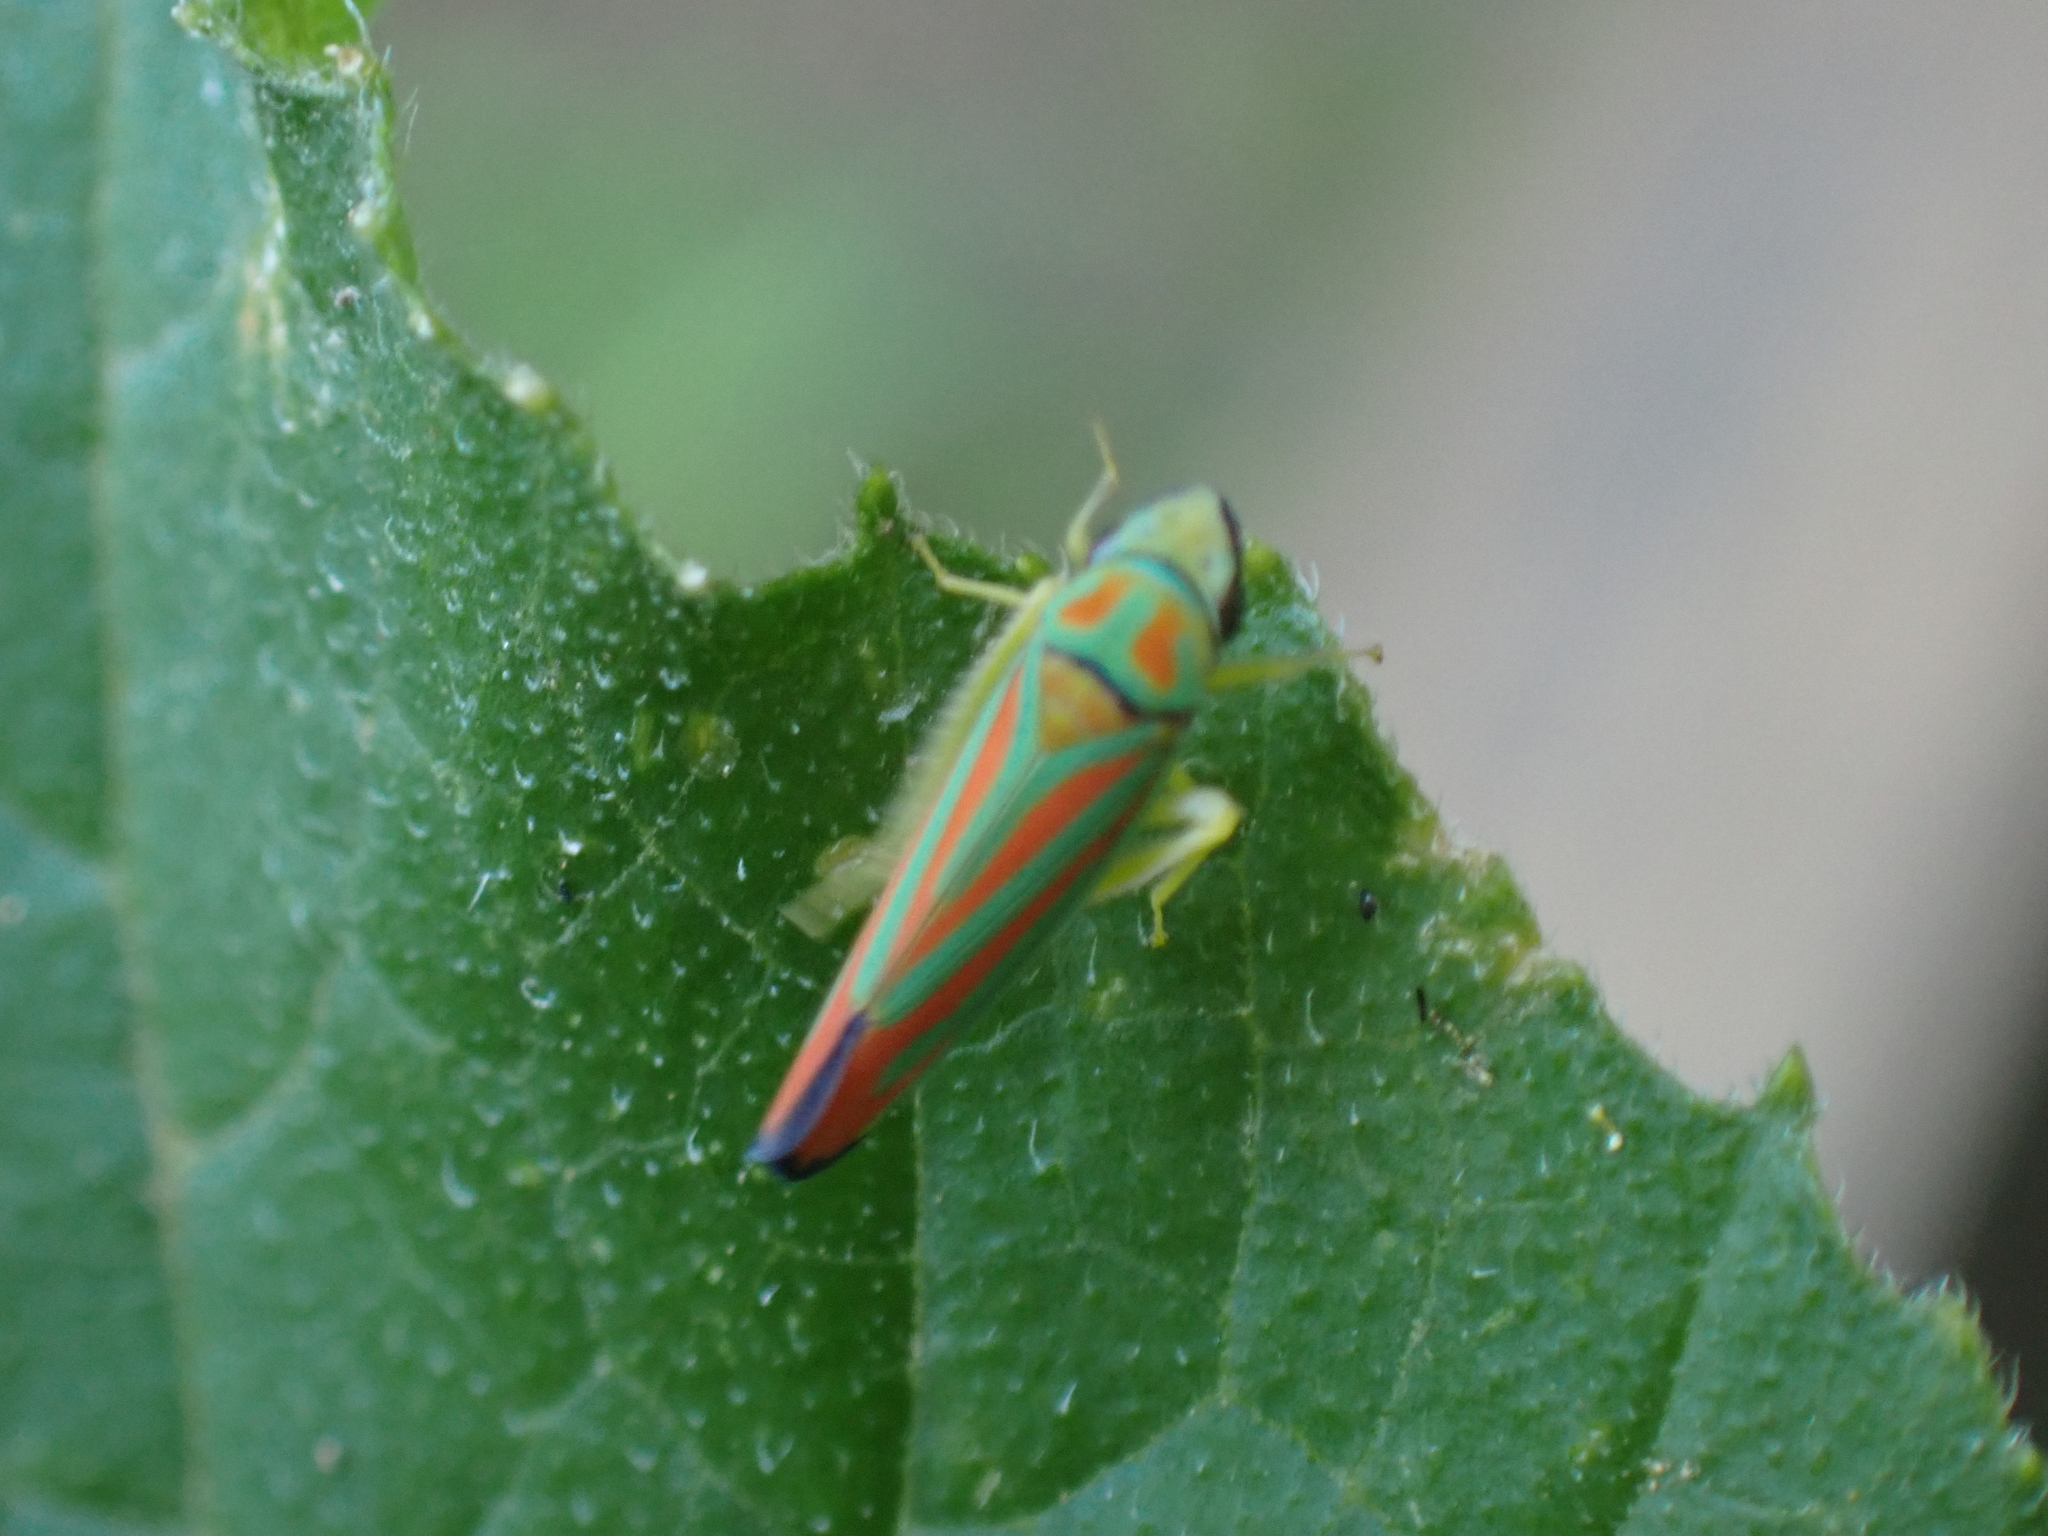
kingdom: Animalia
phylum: Arthropoda
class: Insecta
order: Hemiptera
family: Cicadellidae
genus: Graphocephala
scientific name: Graphocephala coccinea
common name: Candy-striped leafhopper
